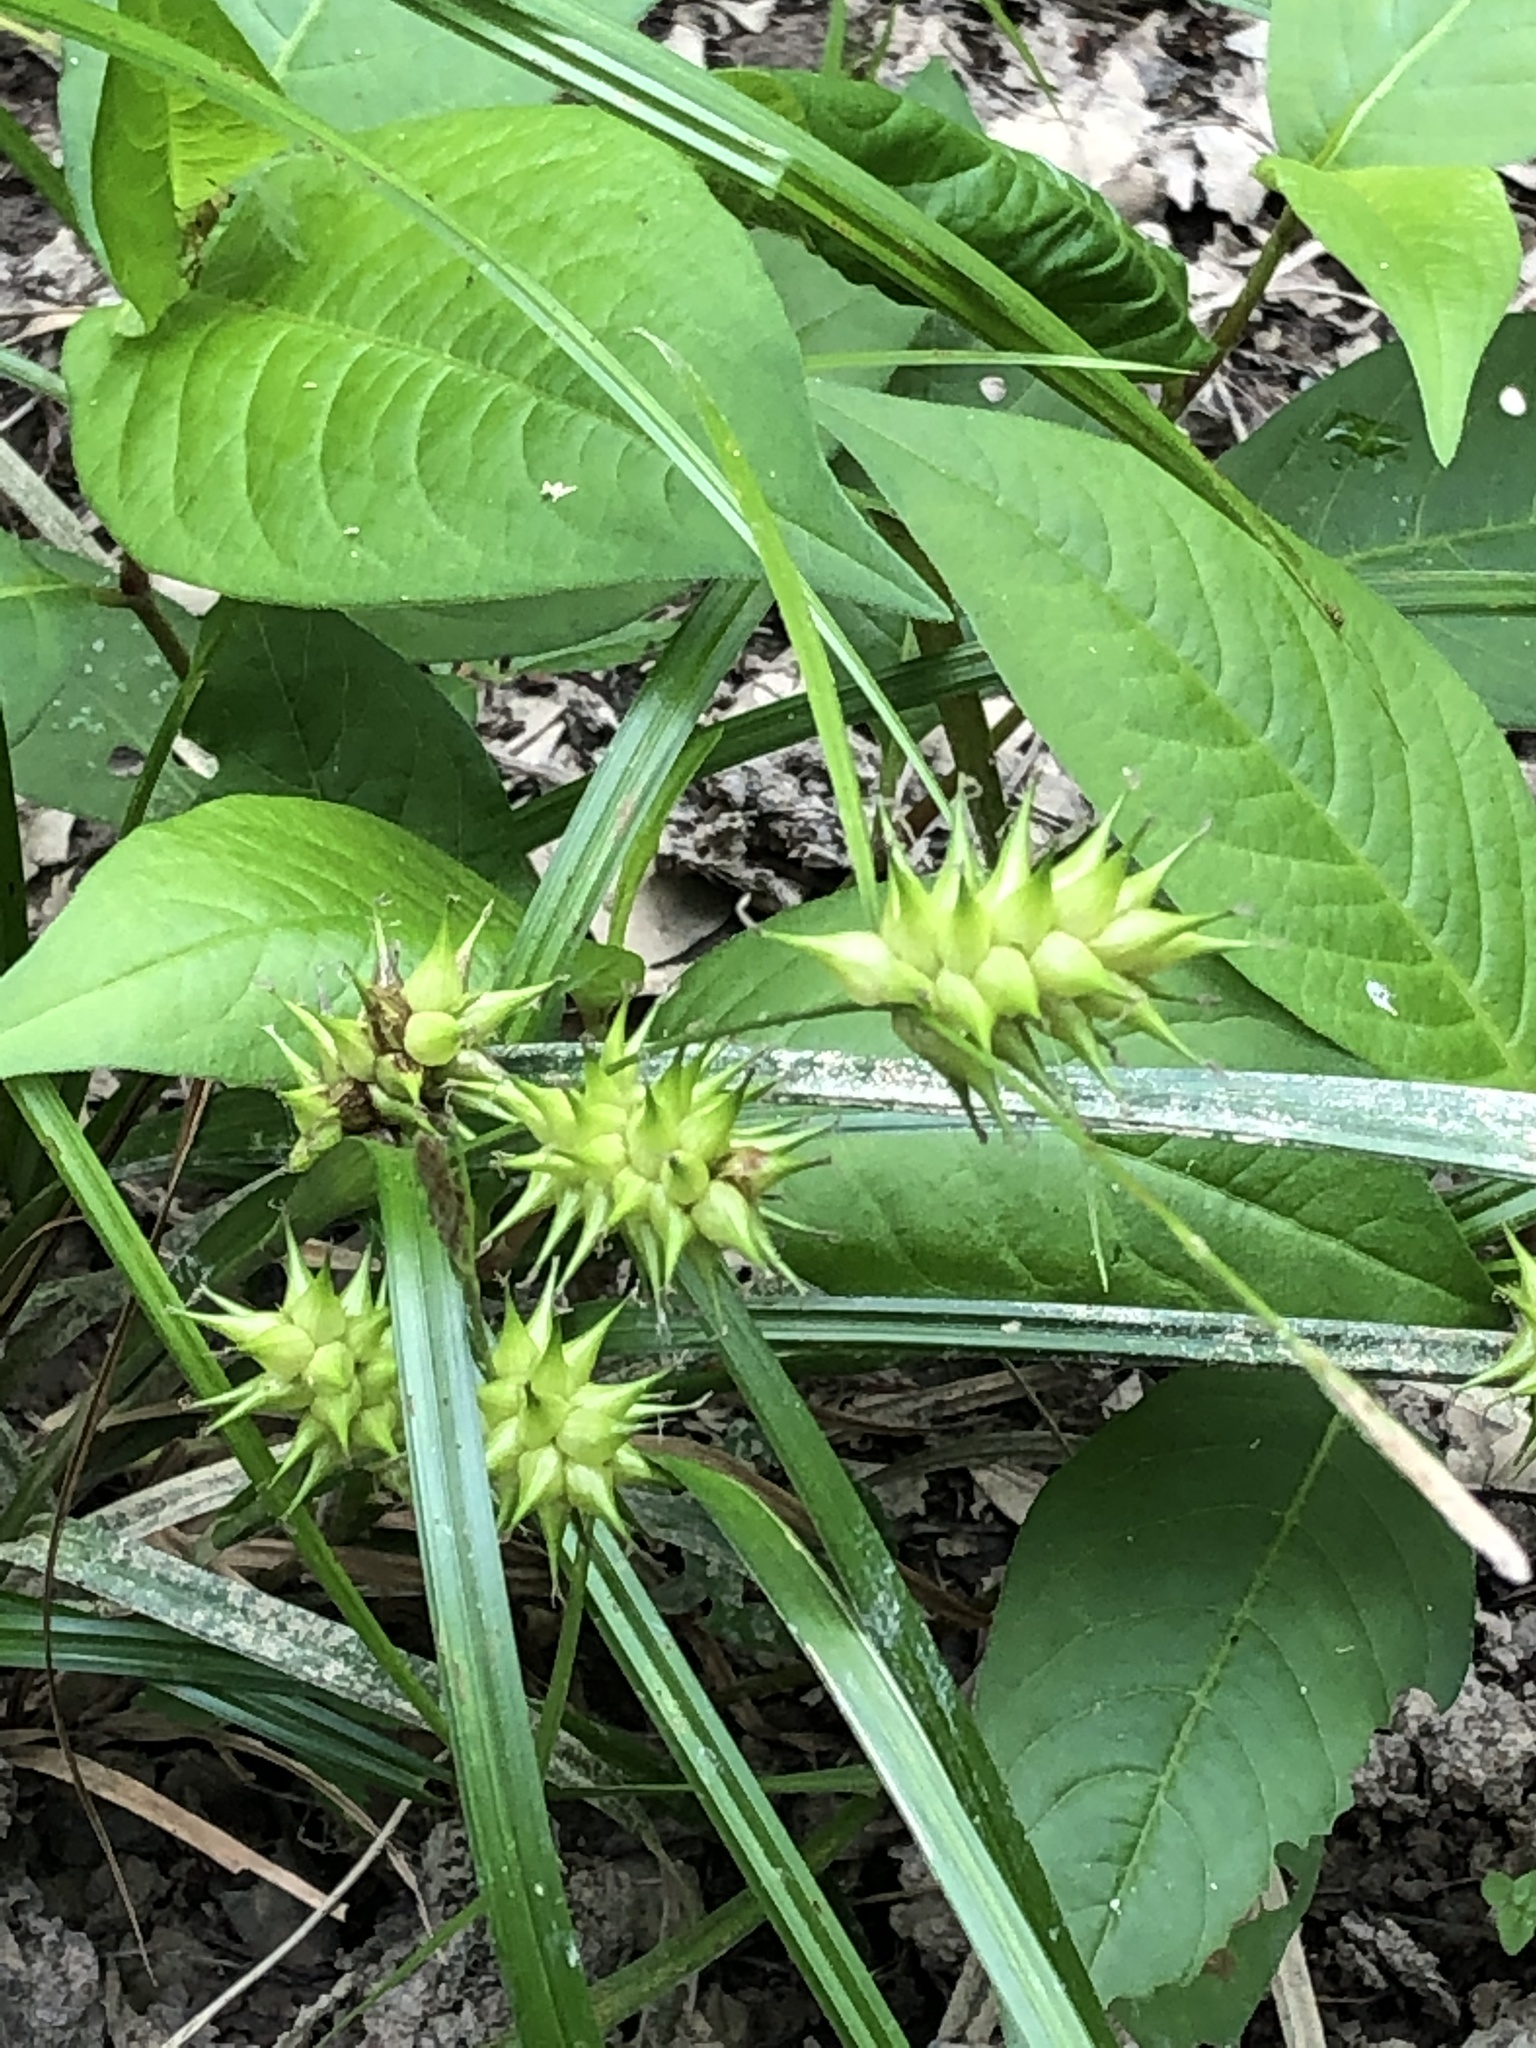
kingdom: Plantae
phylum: Tracheophyta
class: Liliopsida
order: Poales
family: Cyperaceae
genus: Carex
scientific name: Carex louisianica
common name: Louisiana sedge
